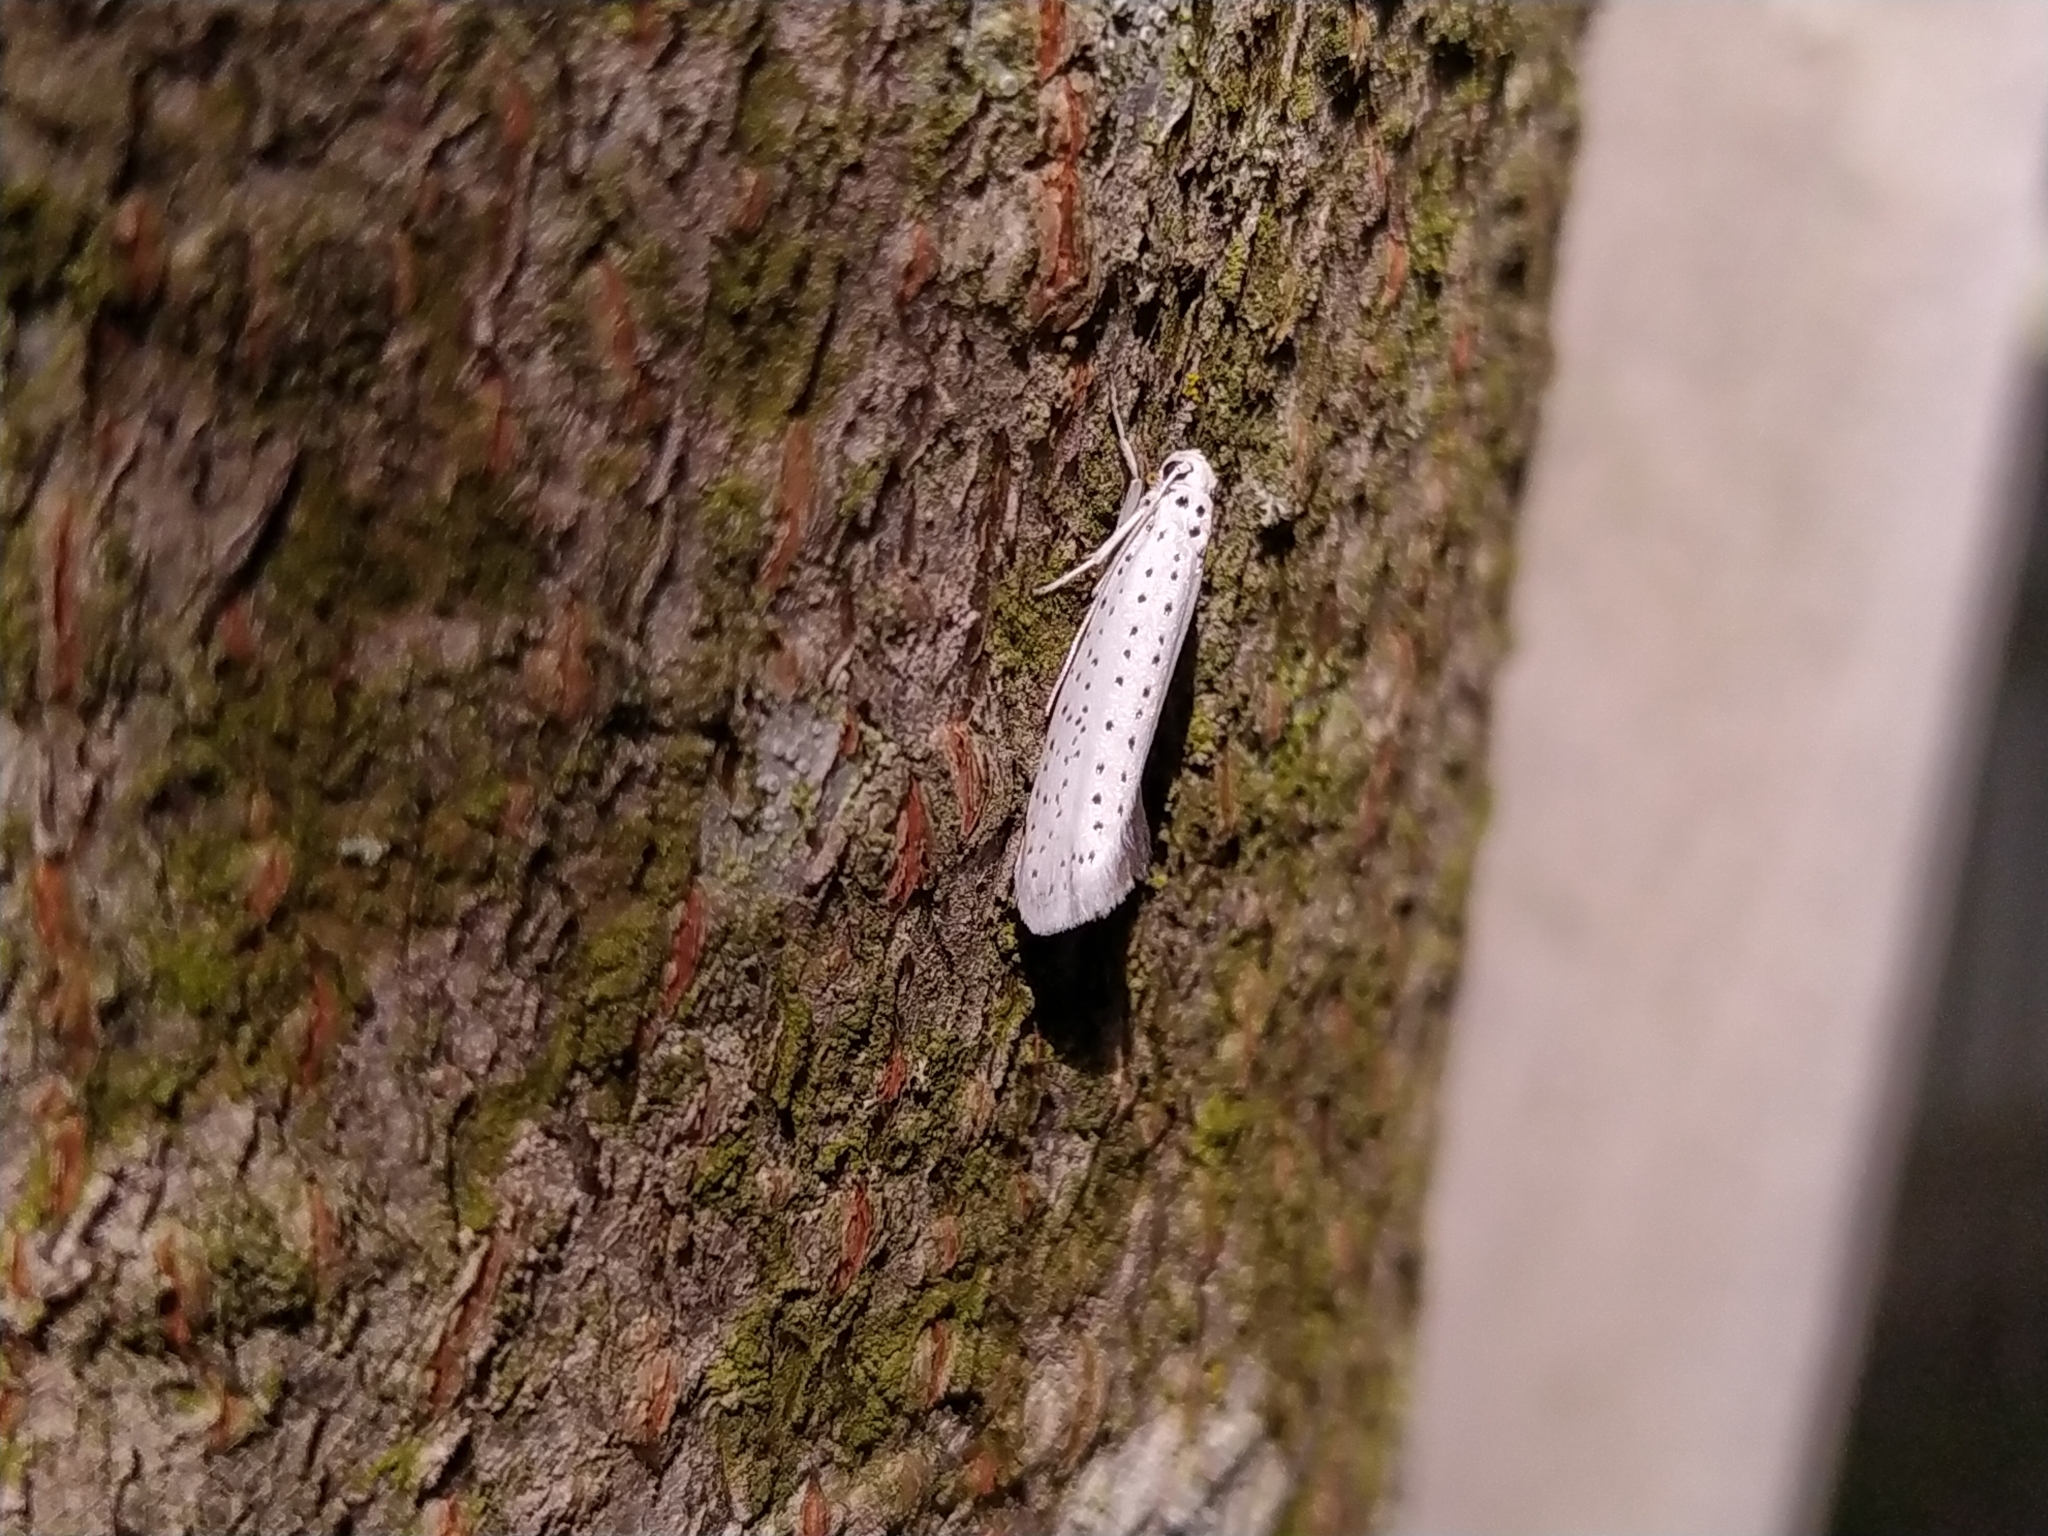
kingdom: Animalia
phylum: Arthropoda
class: Insecta
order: Lepidoptera
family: Yponomeutidae
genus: Yponomeuta
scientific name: Yponomeuta evonymella
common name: Bird-cherry ermine
